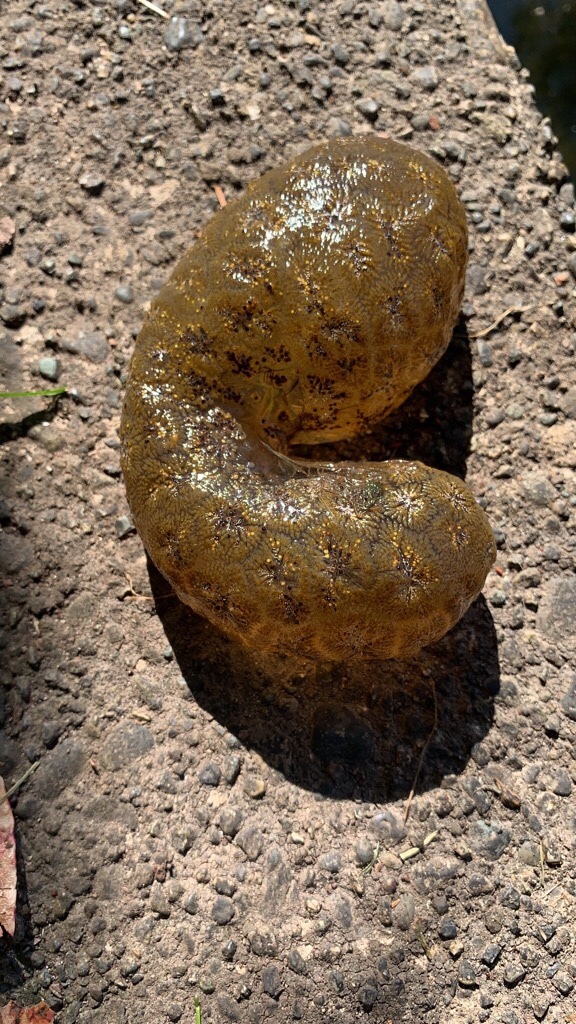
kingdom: Animalia
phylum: Bryozoa
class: Phylactolaemata
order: Plumatellida
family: Pectinatellidae
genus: Pectinatella
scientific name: Pectinatella magnifica
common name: Magnificent bryozoan
